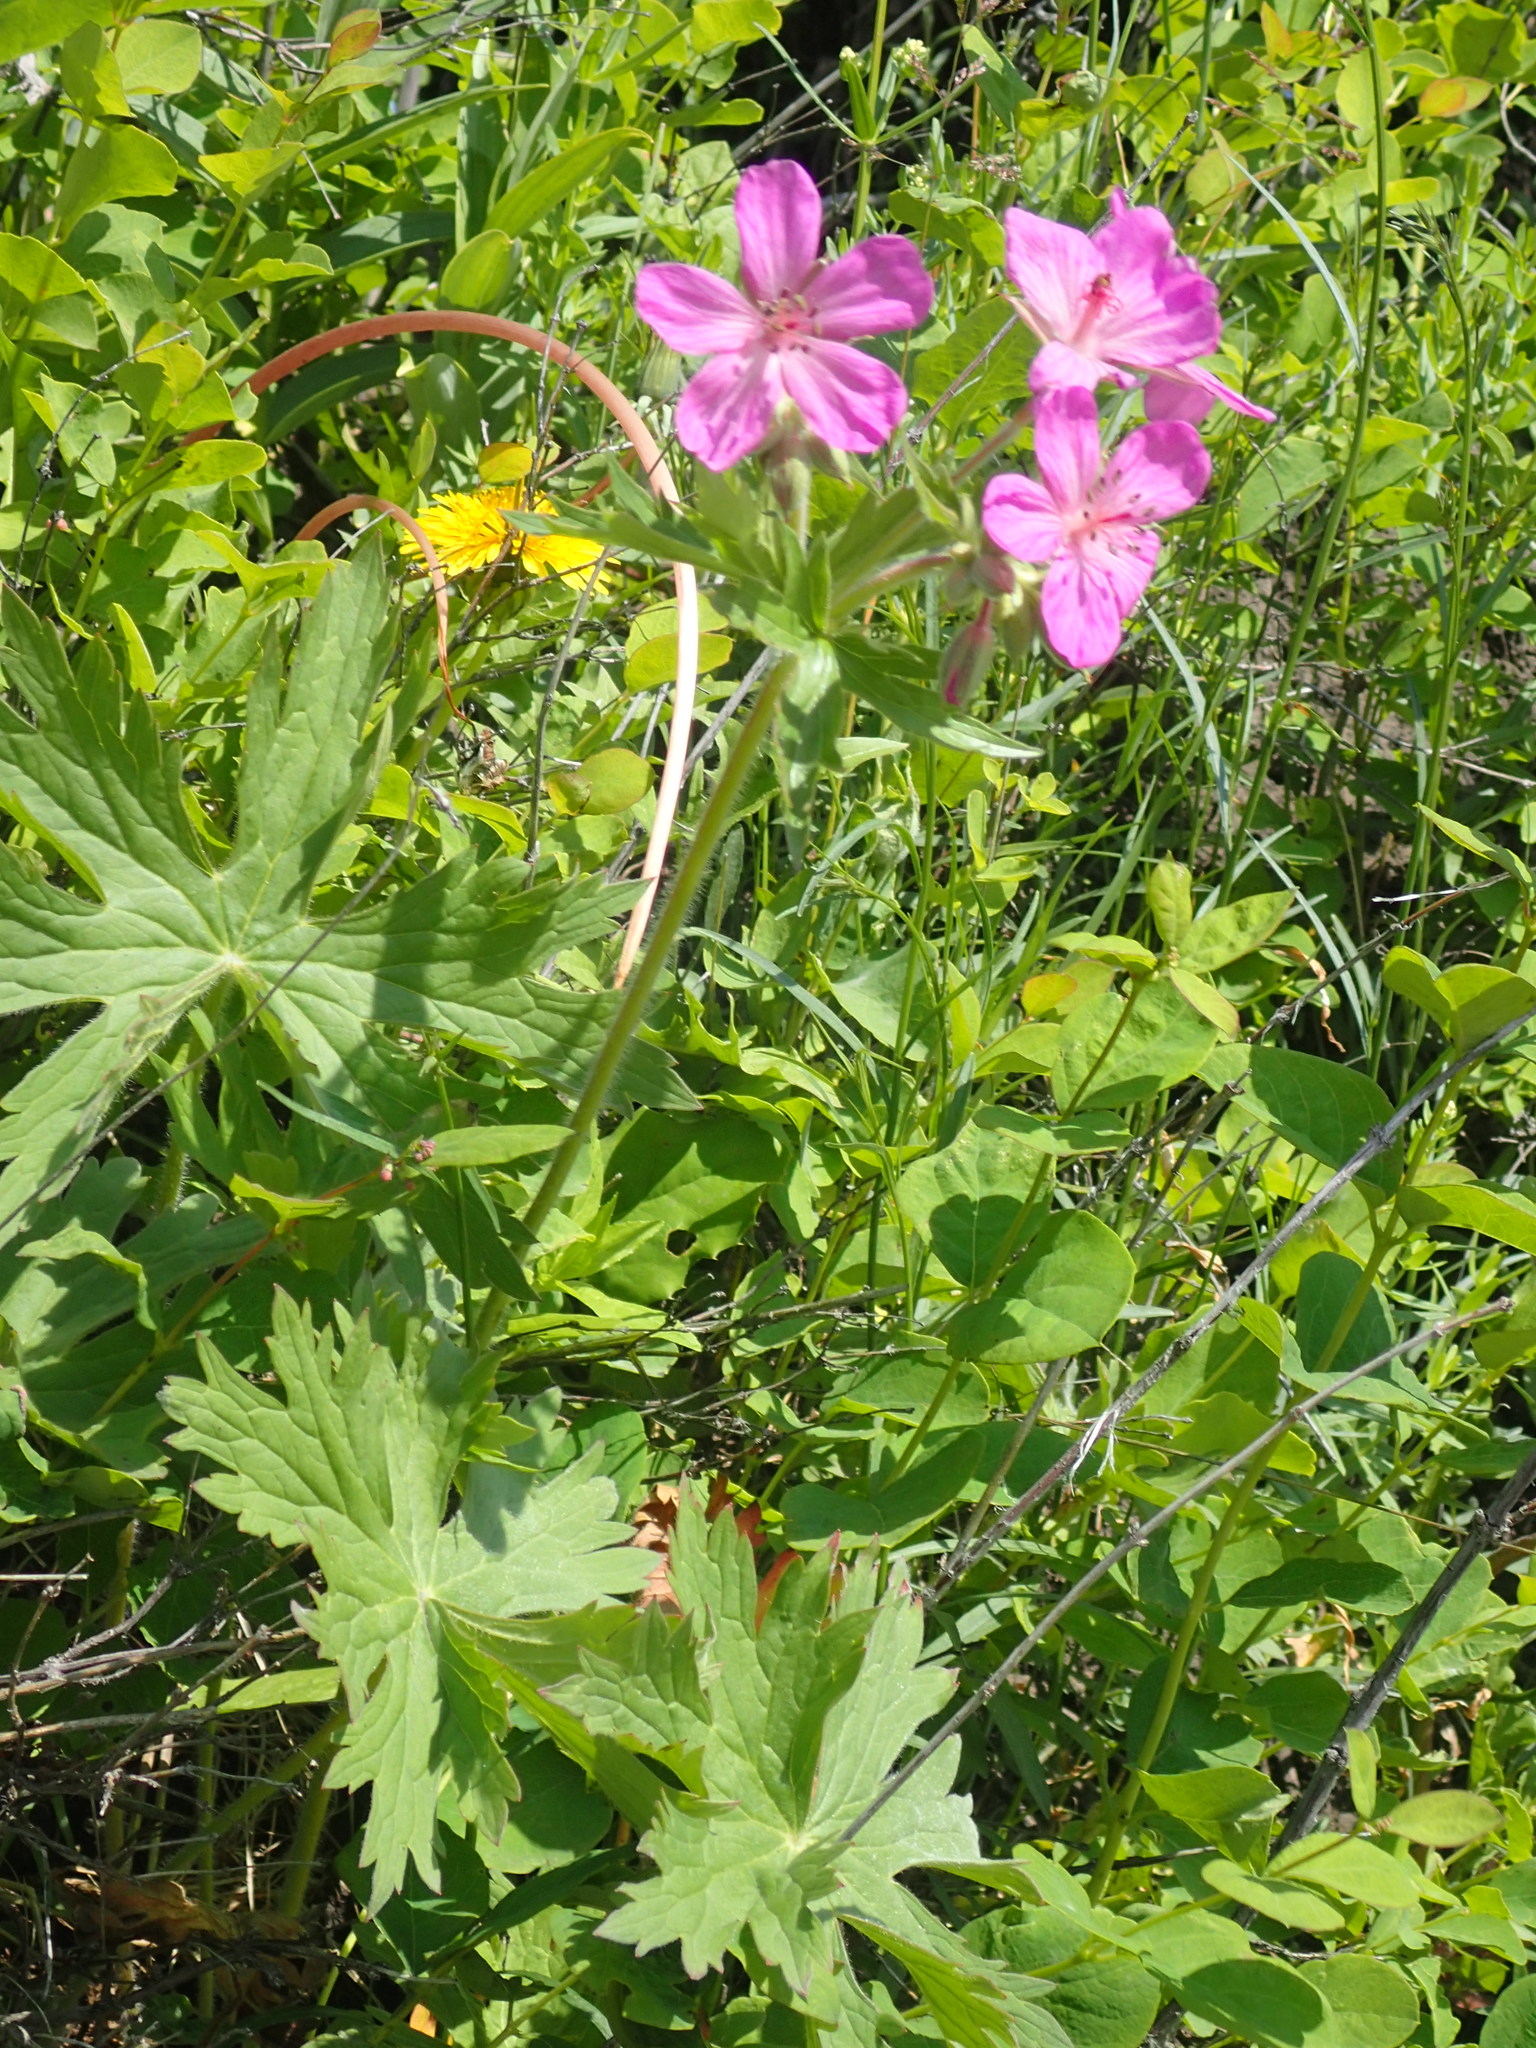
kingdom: Plantae
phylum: Tracheophyta
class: Magnoliopsida
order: Geraniales
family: Geraniaceae
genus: Geranium
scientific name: Geranium viscosissimum
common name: Purple geranium
